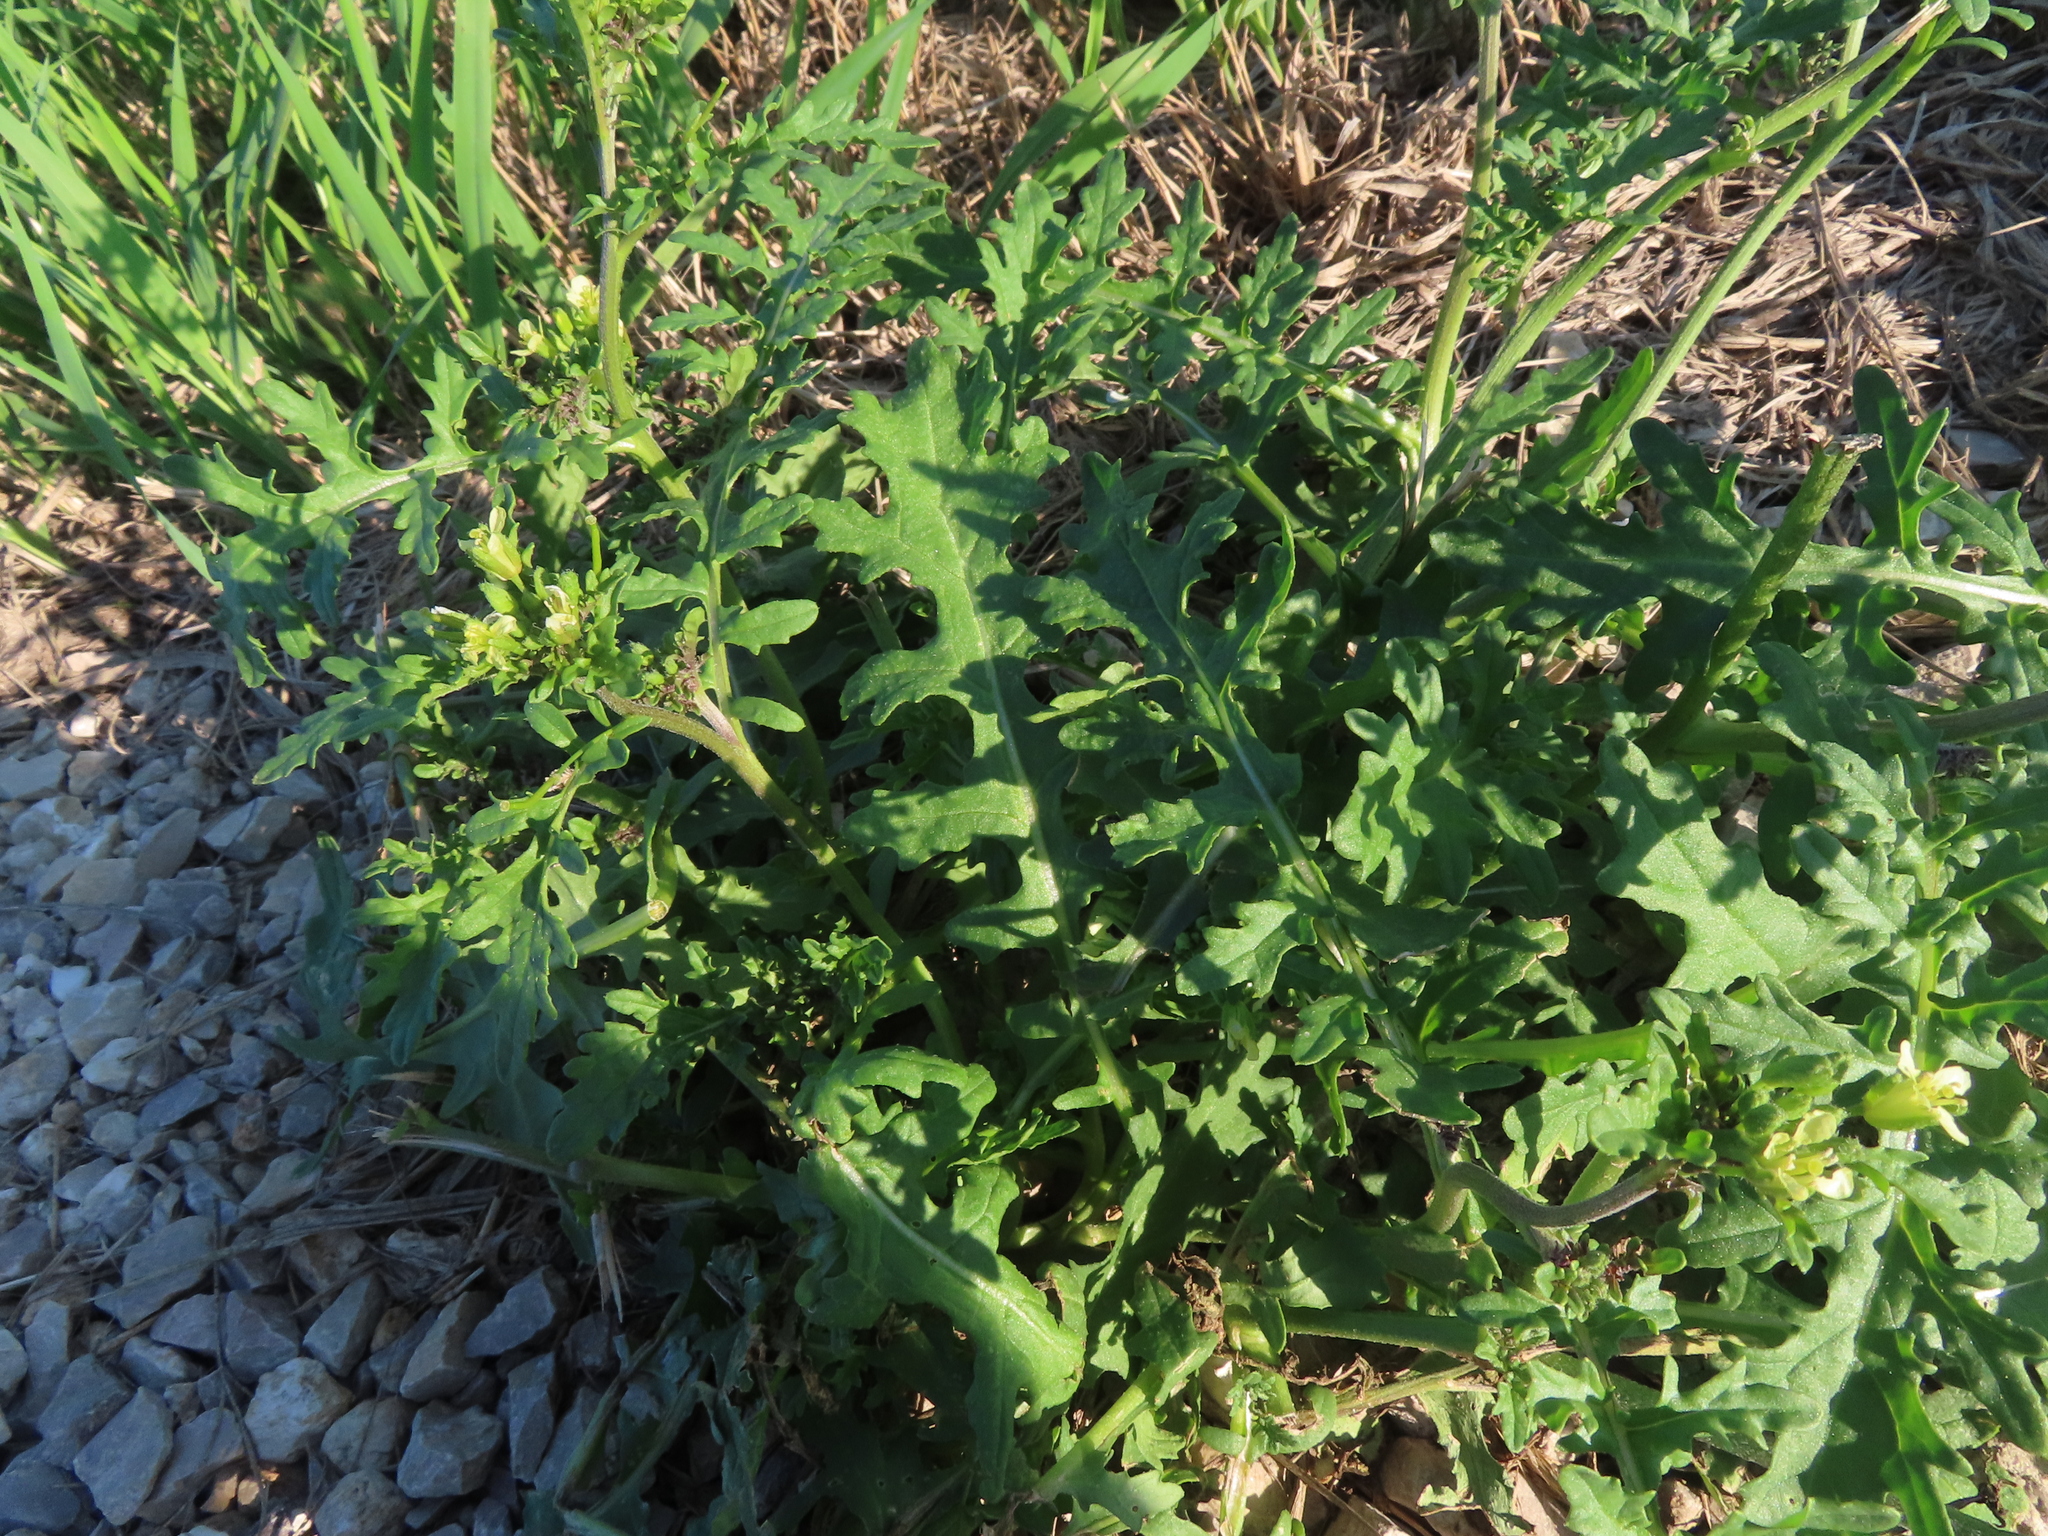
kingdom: Plantae
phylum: Tracheophyta
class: Magnoliopsida
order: Brassicales
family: Brassicaceae
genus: Erucastrum
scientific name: Erucastrum gallicum
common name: Hairy rocket
